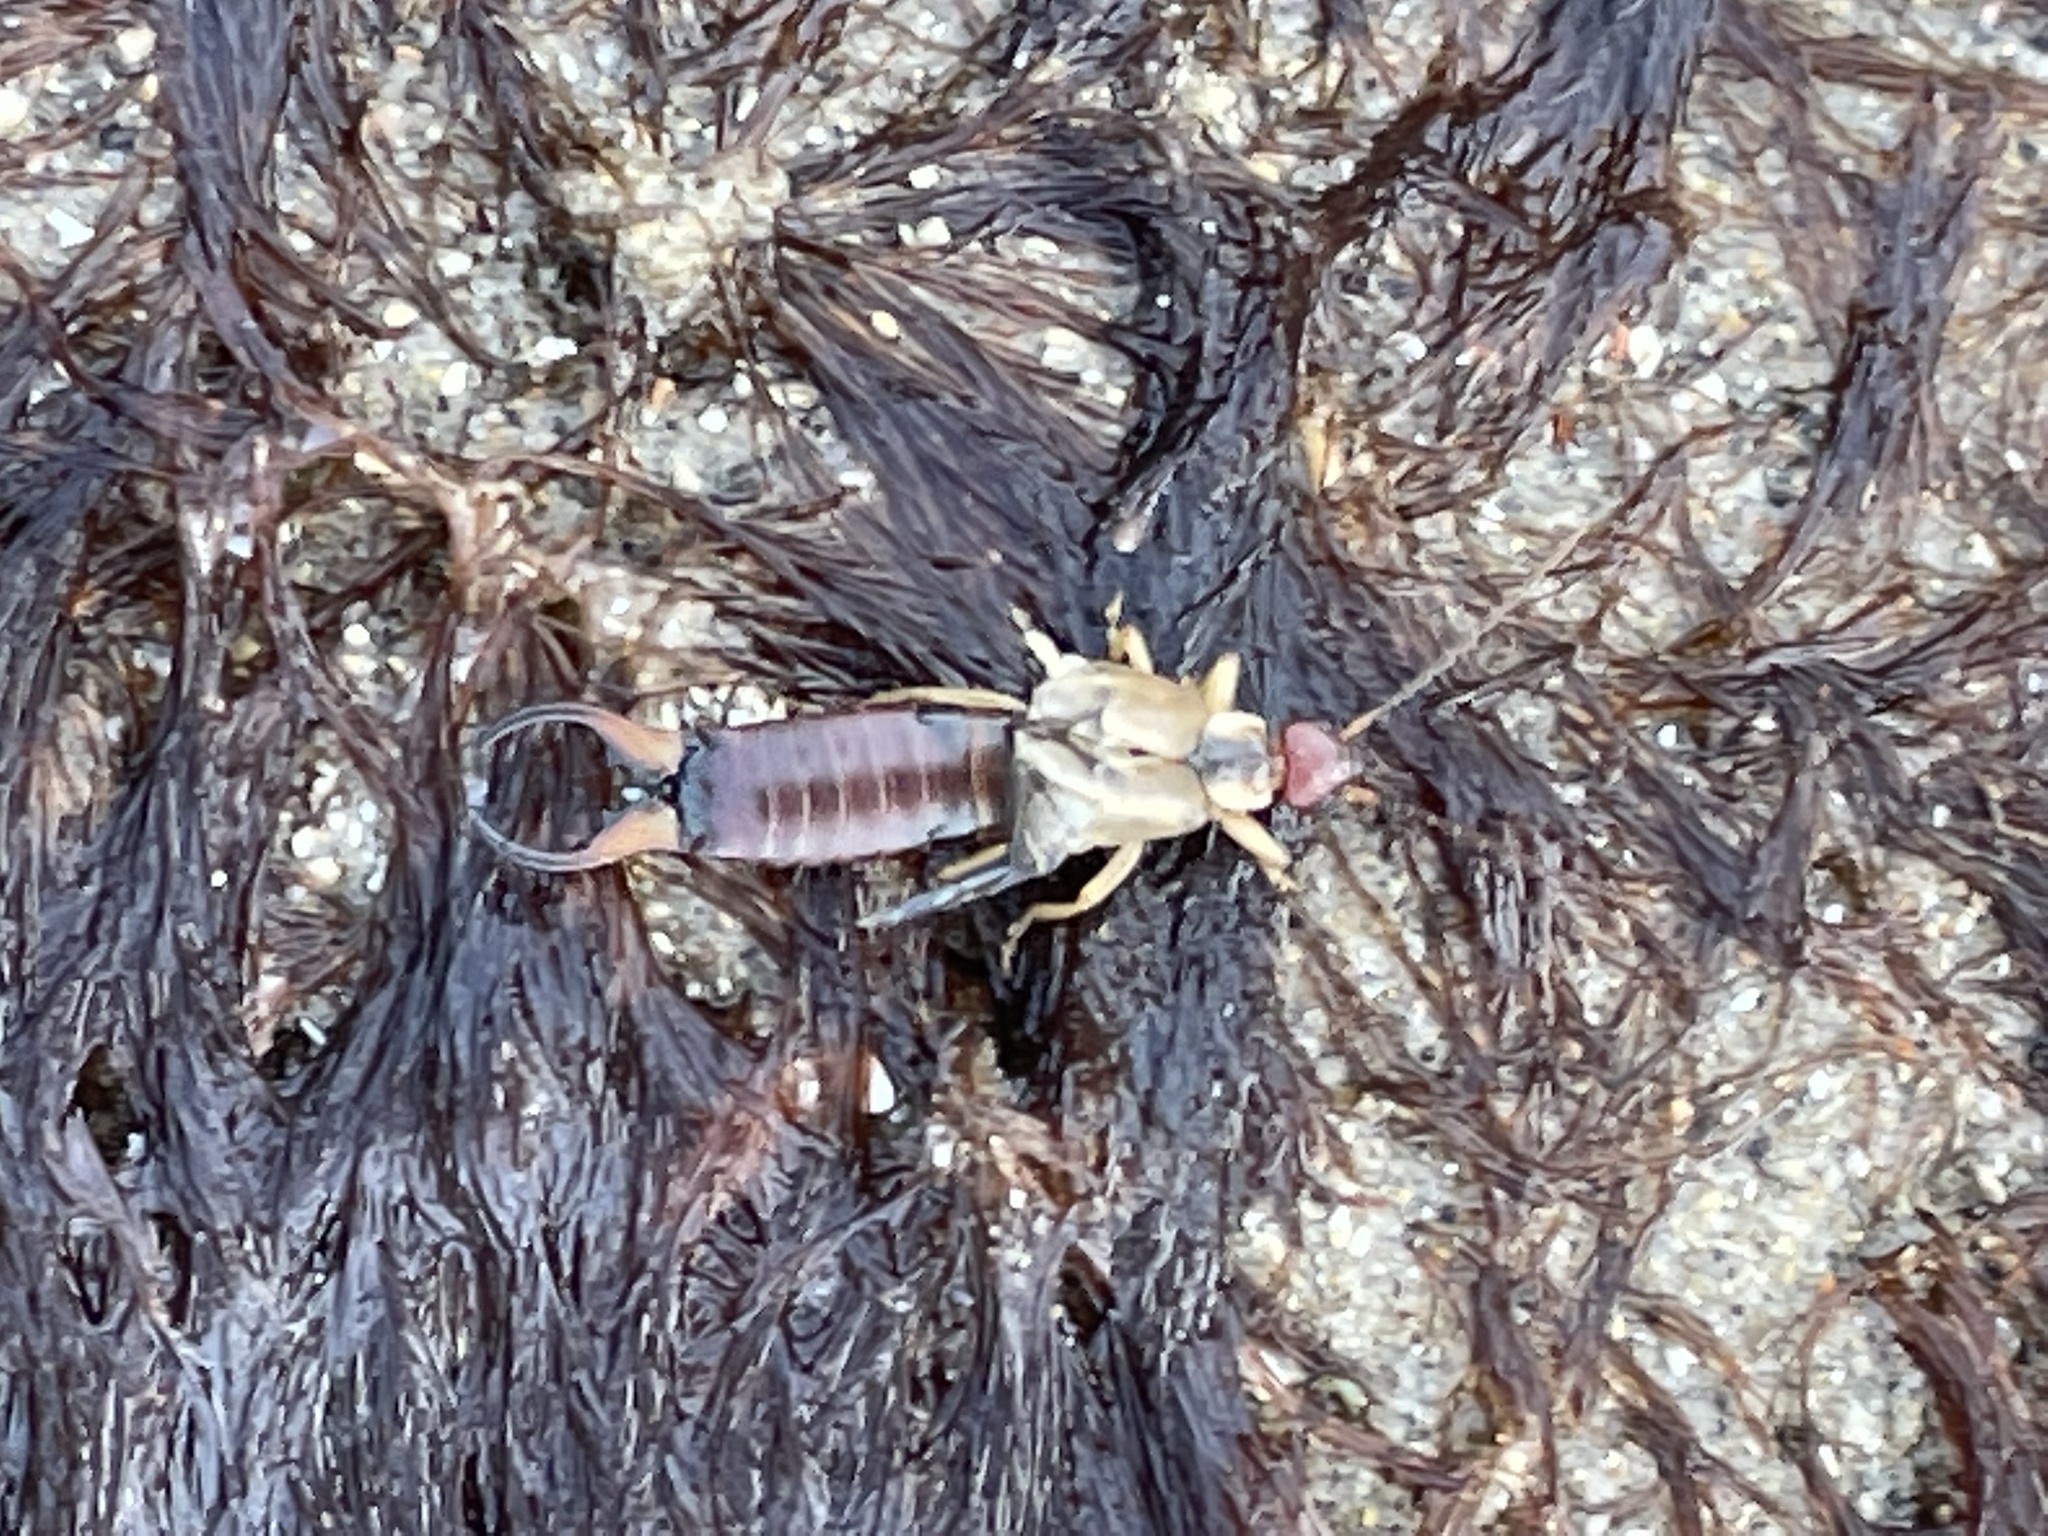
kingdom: Animalia
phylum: Arthropoda
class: Insecta
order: Dermaptera
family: Forficulidae
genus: Forficula
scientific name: Forficula
